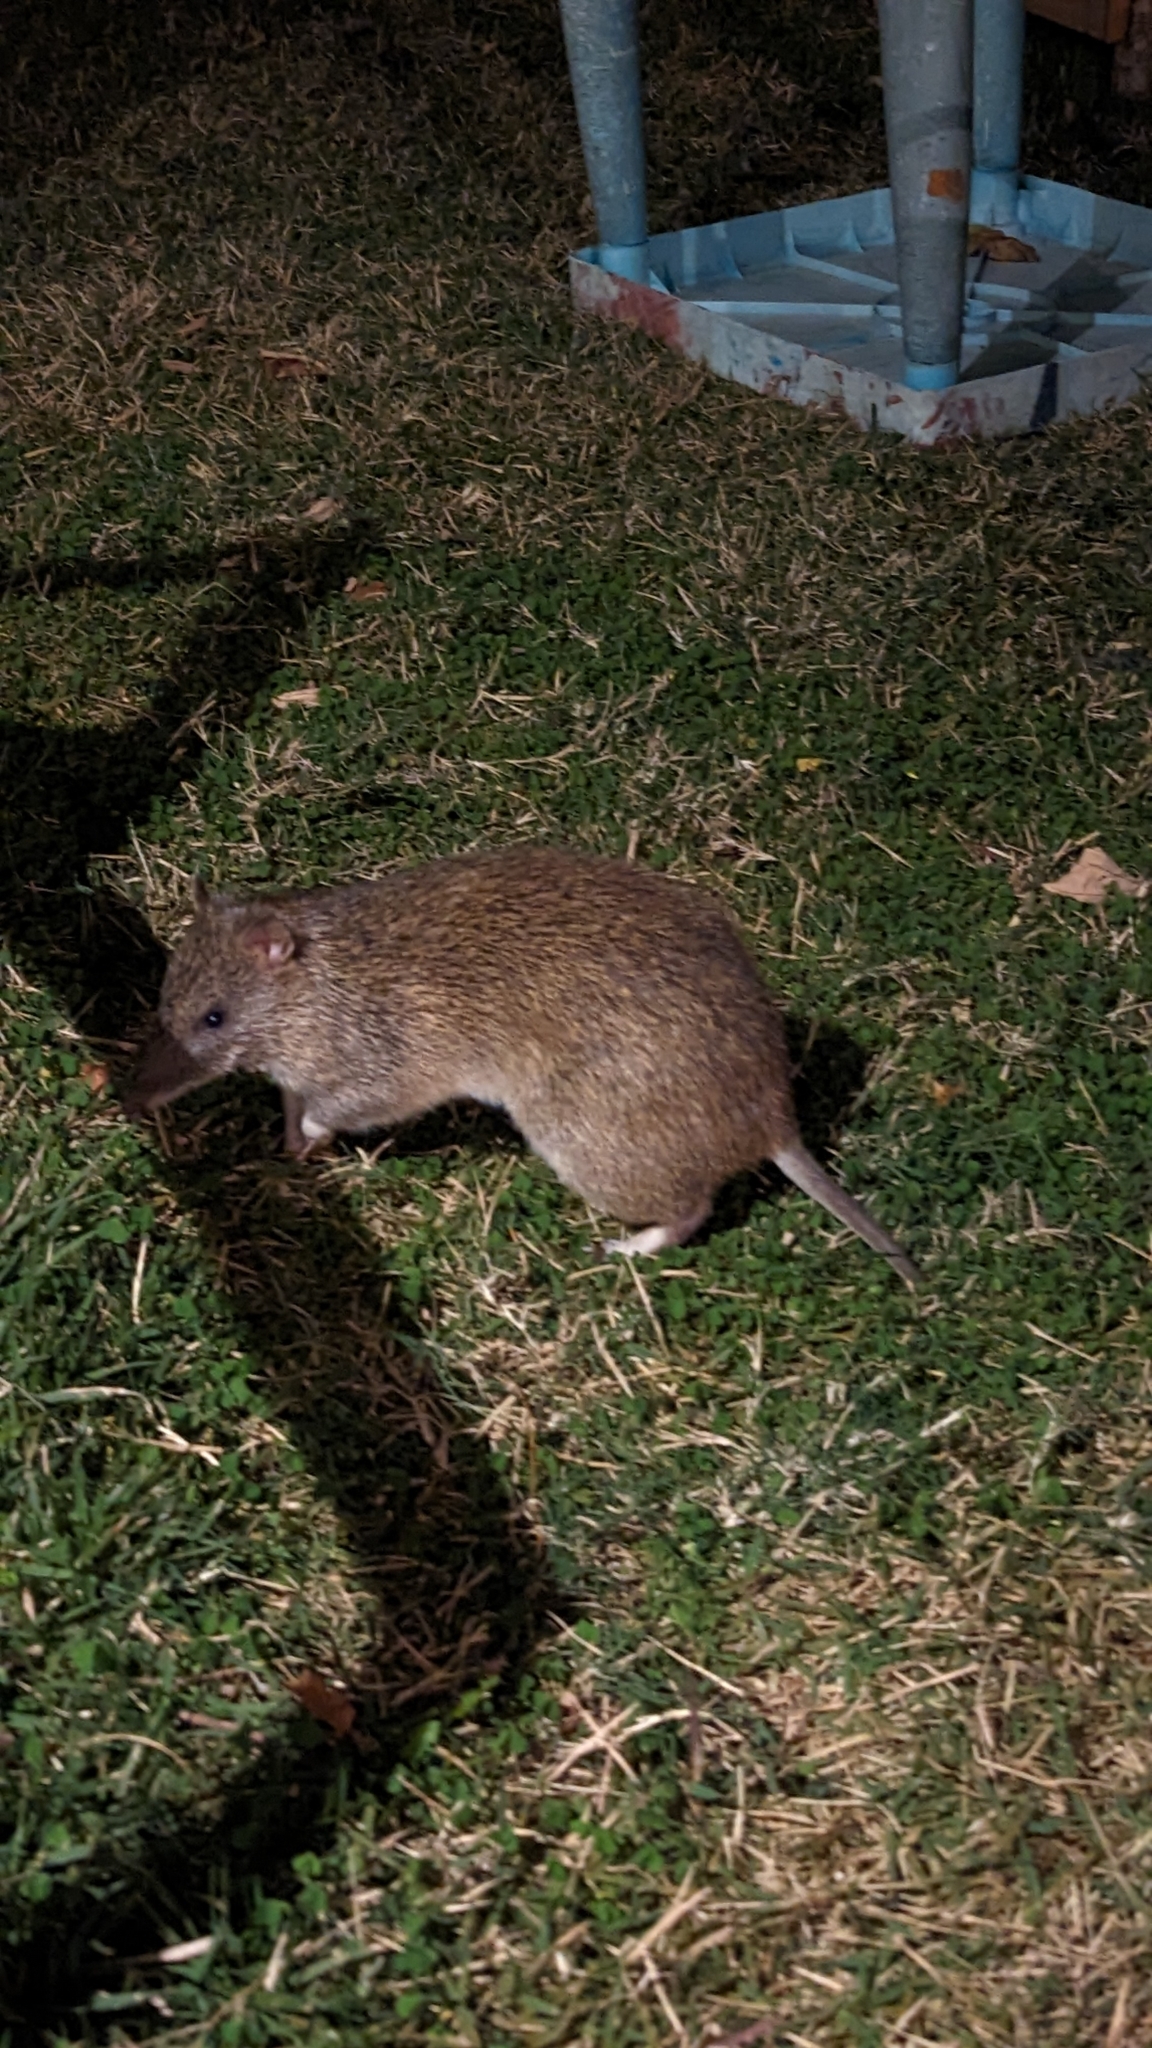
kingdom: Animalia
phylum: Chordata
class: Mammalia
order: Peramelemorphia
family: Peramelidae
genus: Isoodon
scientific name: Isoodon macrourus
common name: Northern brown bandicoot
